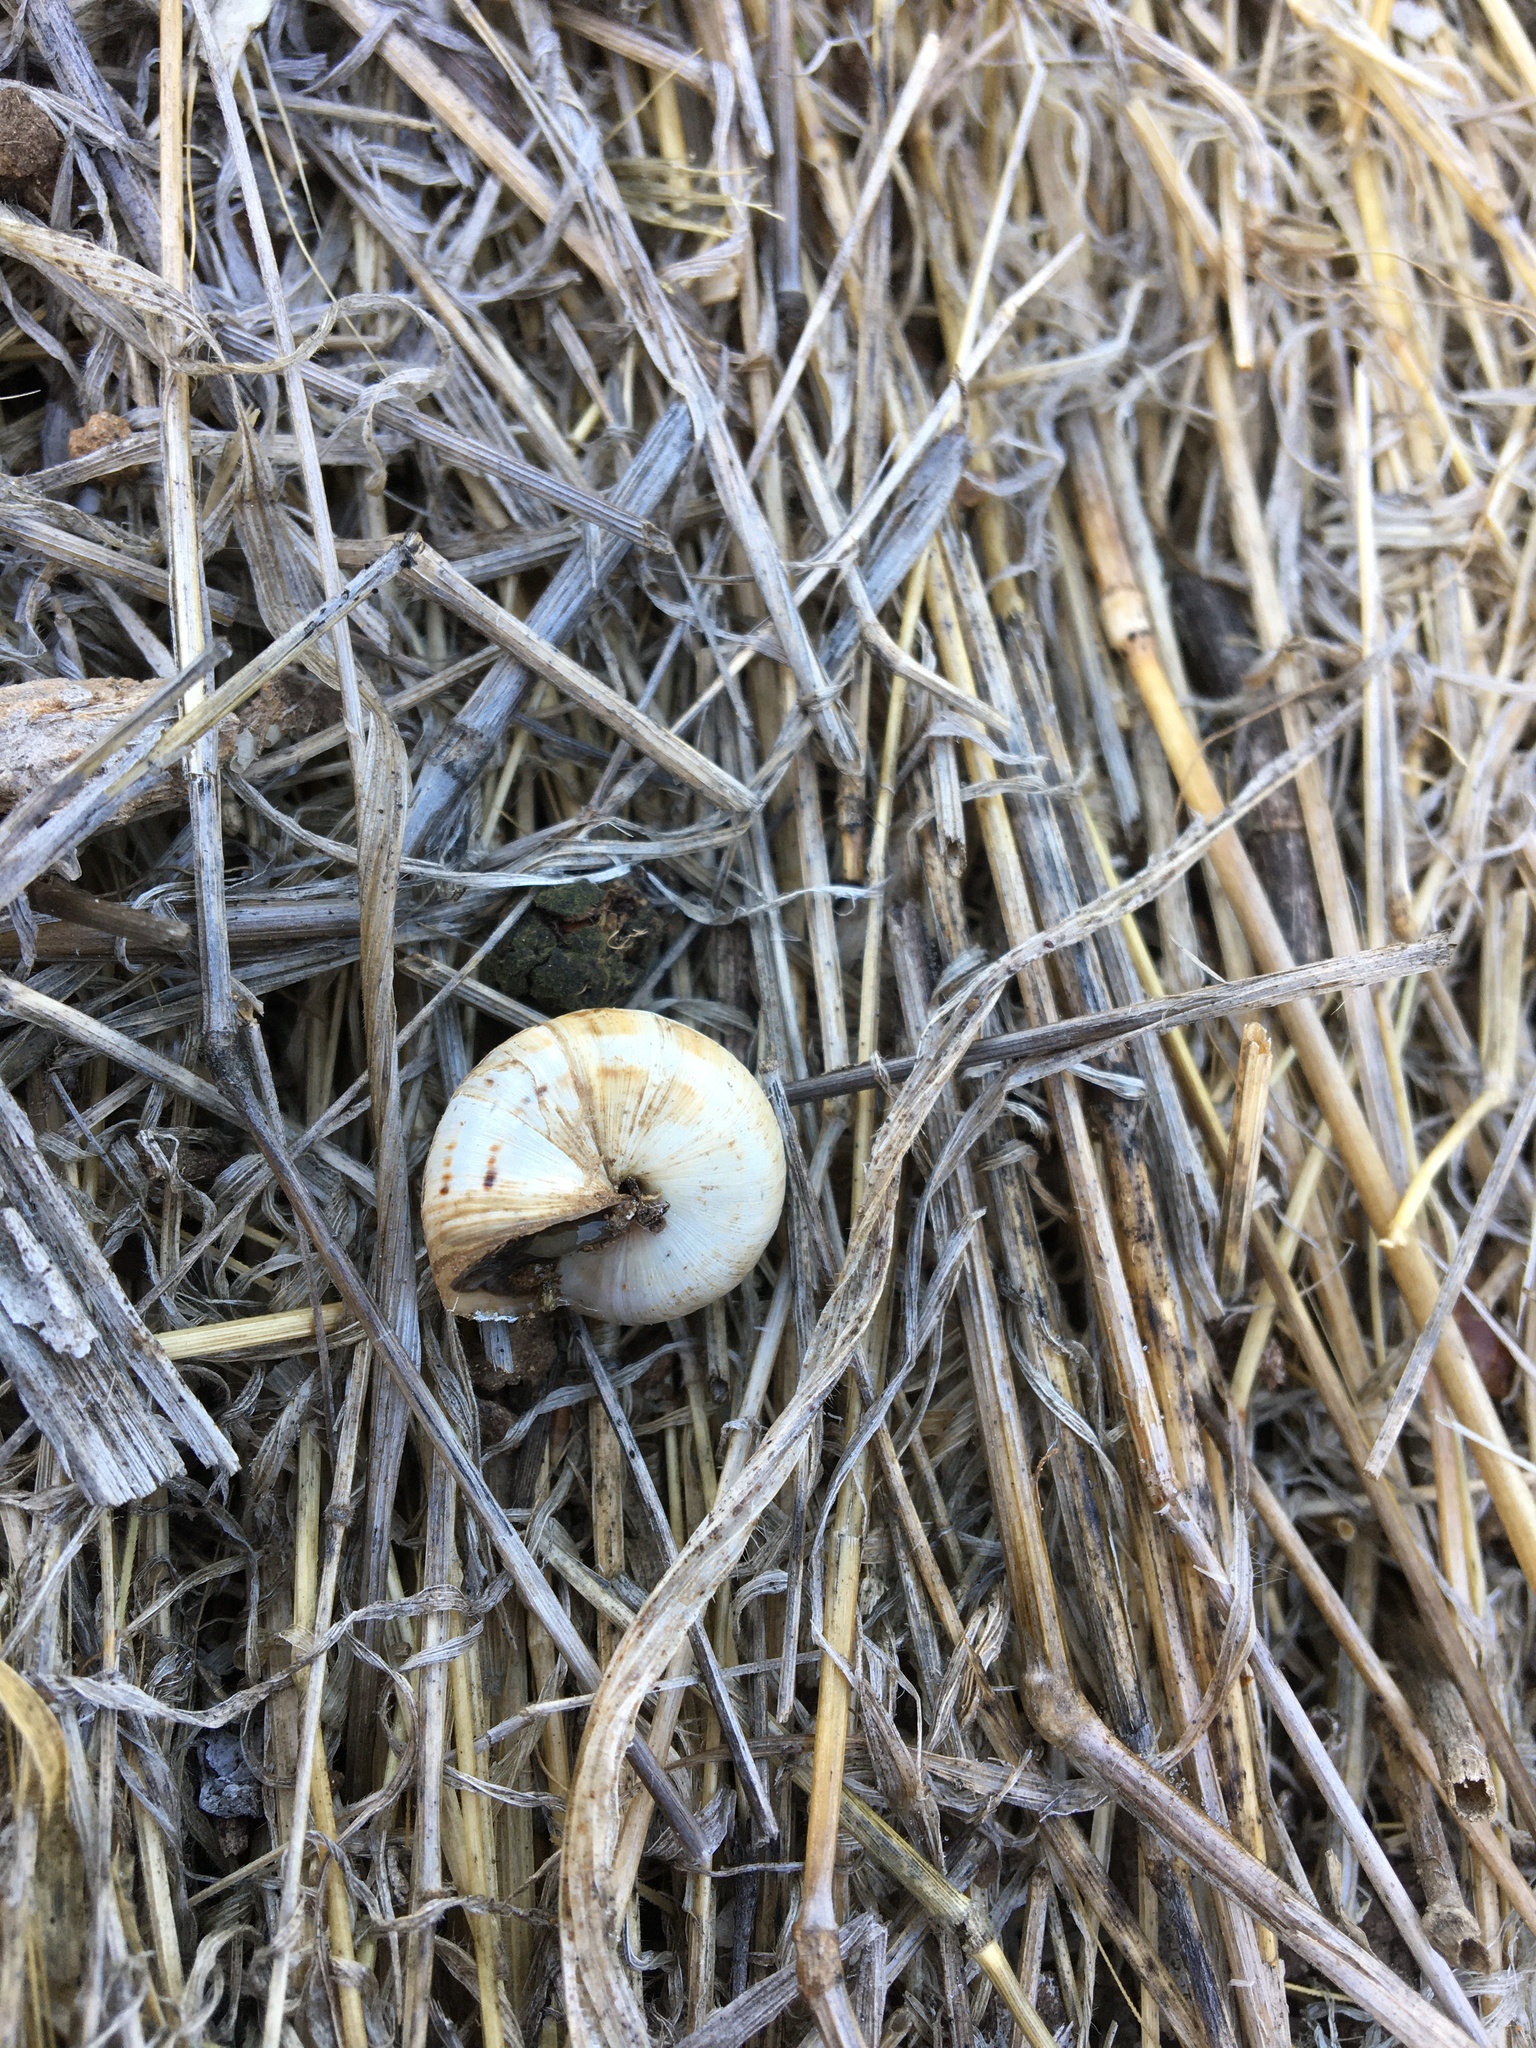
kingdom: Animalia
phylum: Mollusca
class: Gastropoda
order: Stylommatophora
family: Helicidae
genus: Theba
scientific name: Theba pisana
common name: White snail
